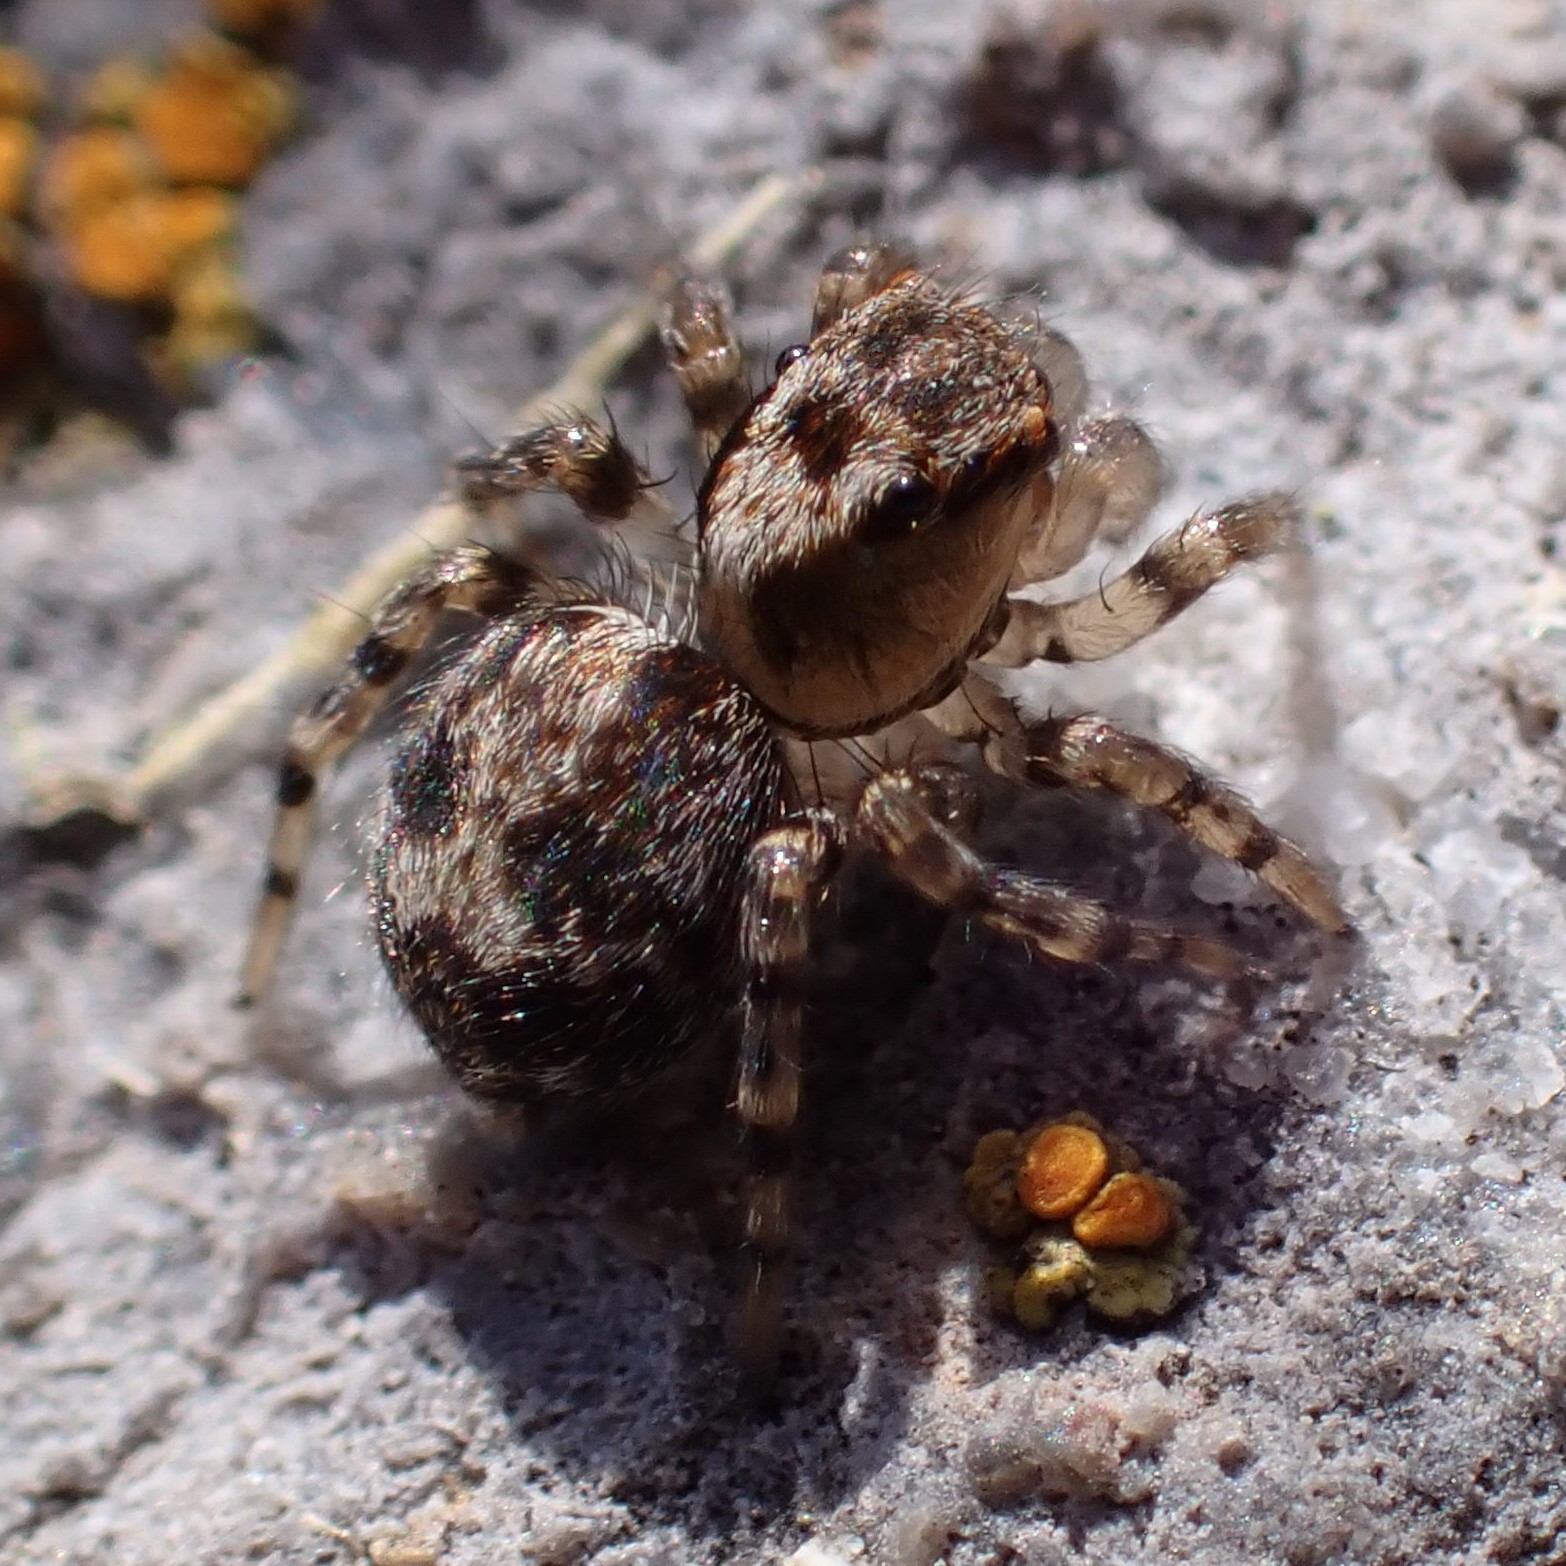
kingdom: Animalia
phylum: Arthropoda
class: Arachnida
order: Araneae
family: Salticidae
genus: Naphrys
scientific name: Naphrys pulex
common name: Flea jumping spider
